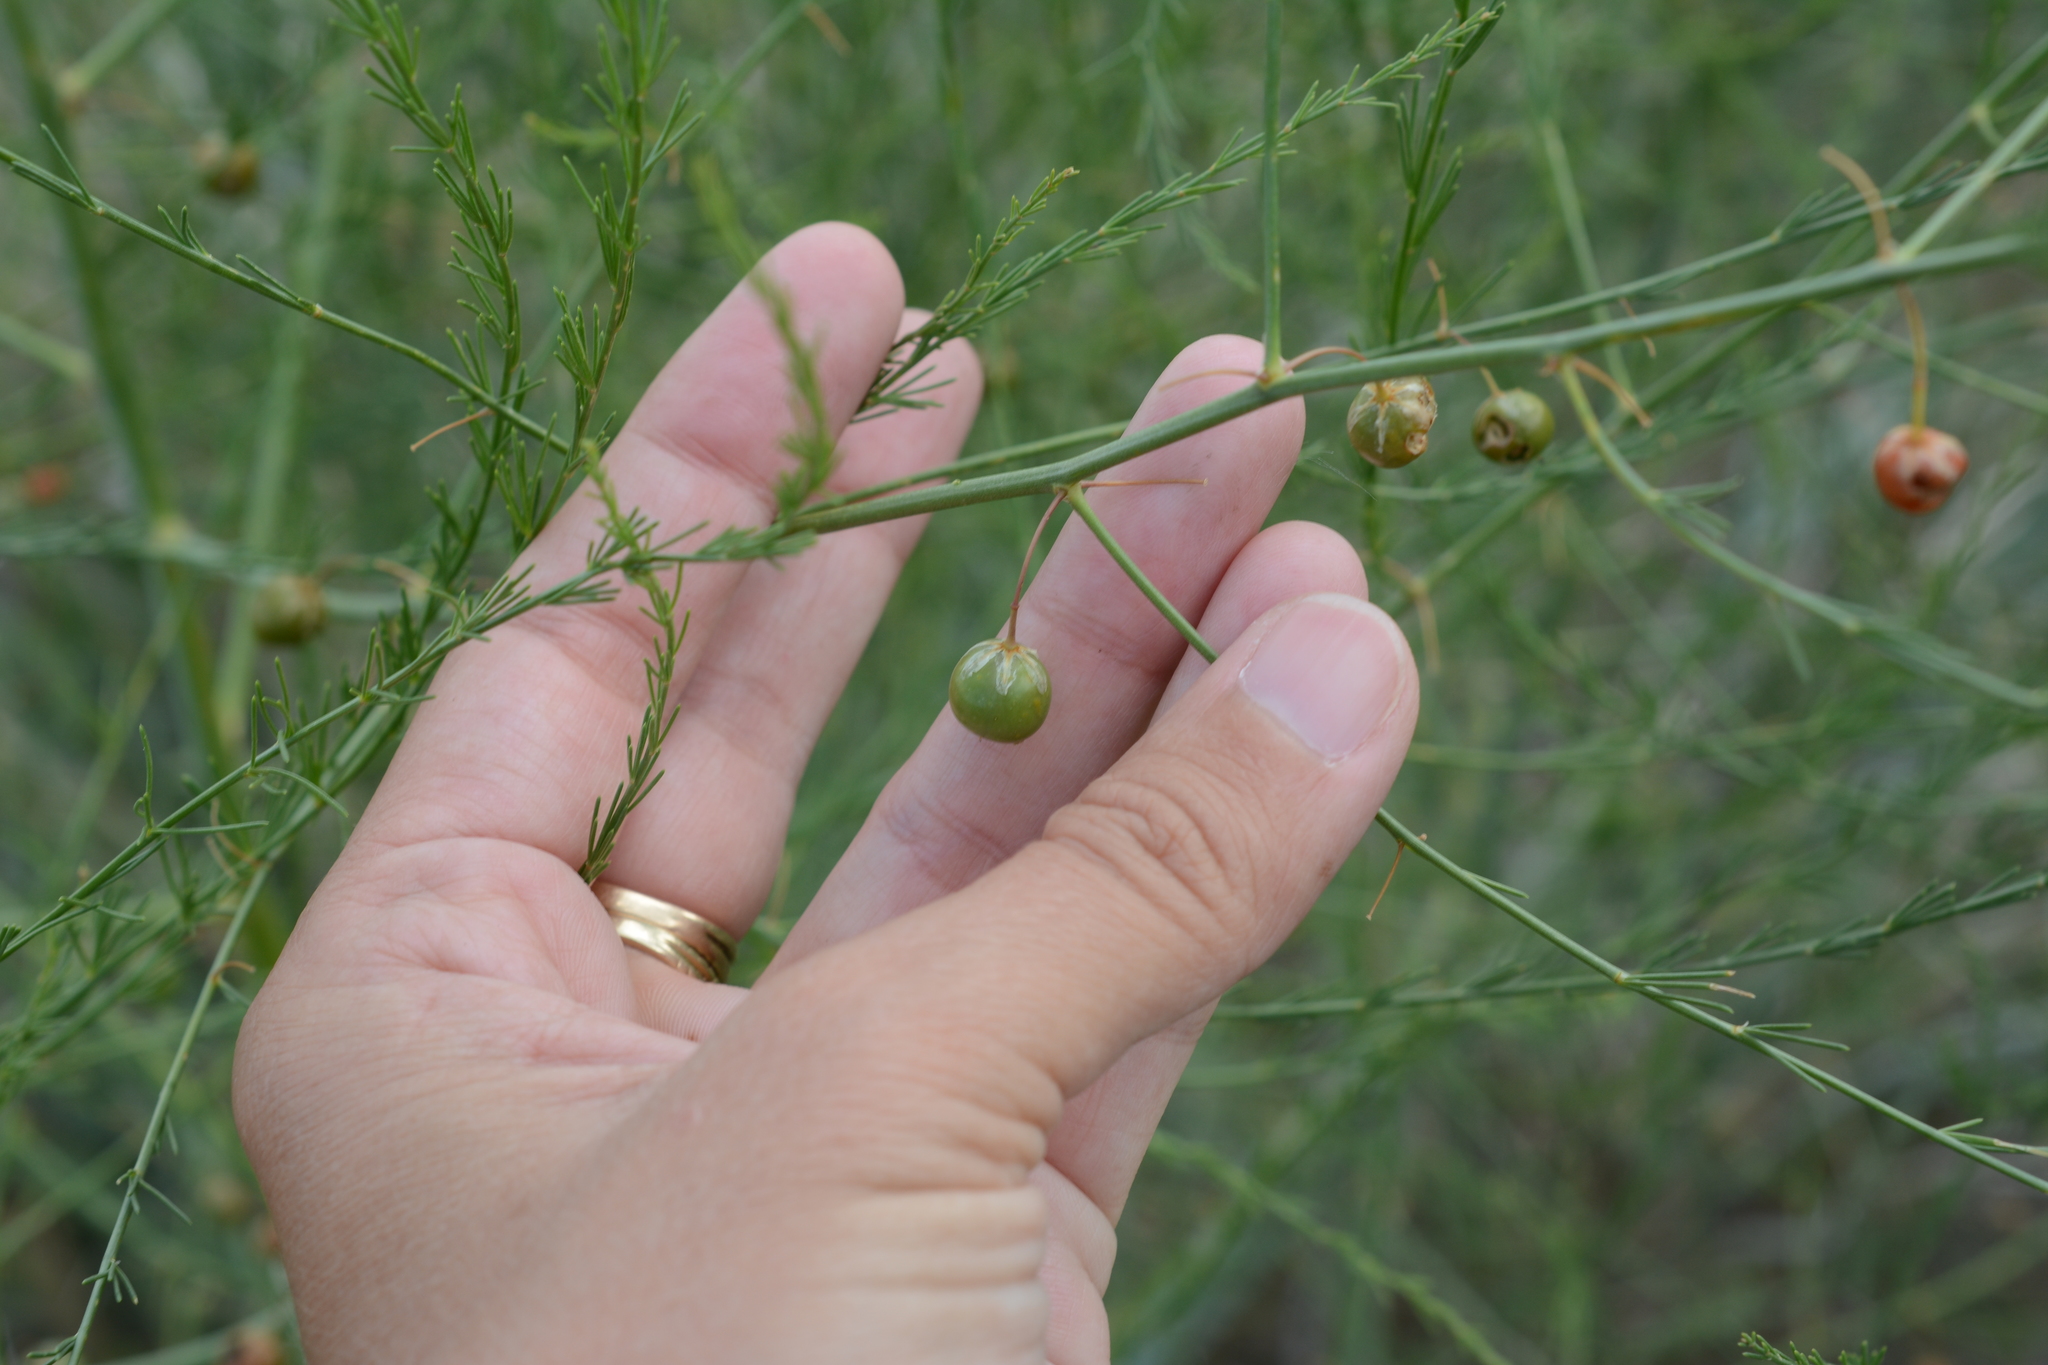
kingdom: Plantae
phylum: Tracheophyta
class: Liliopsida
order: Asparagales
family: Asparagaceae
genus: Asparagus
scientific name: Asparagus officinalis
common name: Garden asparagus
